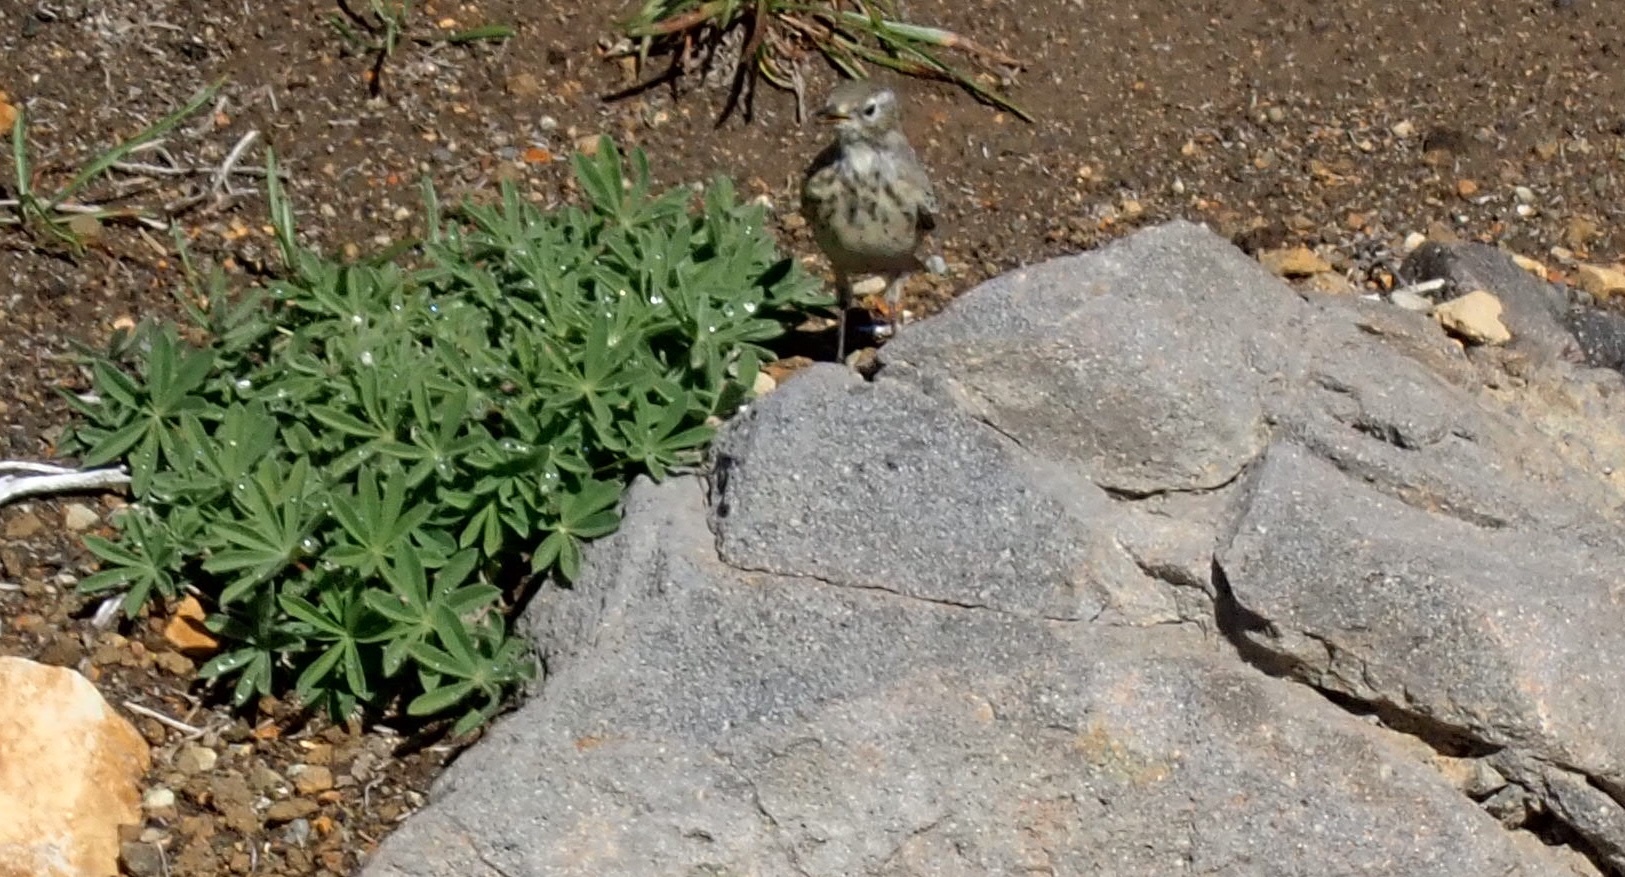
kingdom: Animalia
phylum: Chordata
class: Aves
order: Passeriformes
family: Motacillidae
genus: Anthus
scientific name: Anthus rubescens
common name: Buff-bellied pipit
